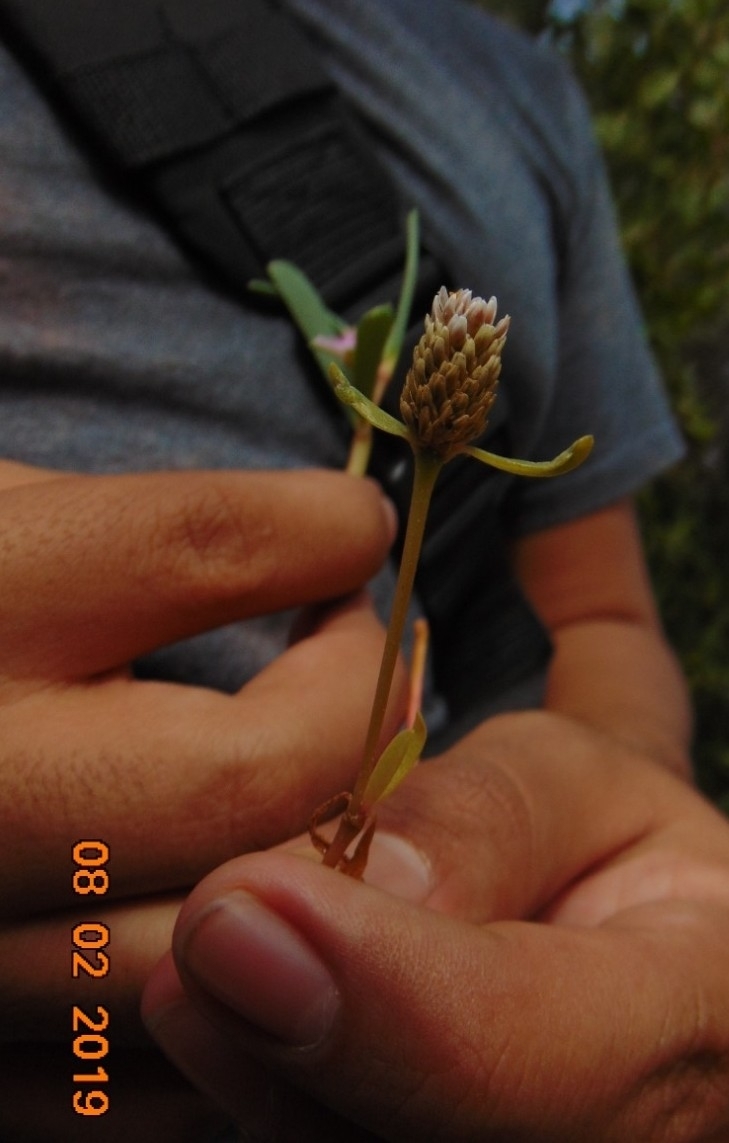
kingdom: Plantae
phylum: Tracheophyta
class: Magnoliopsida
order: Caryophyllales
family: Amaranthaceae
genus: Gomphrena
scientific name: Gomphrena vermicularis
